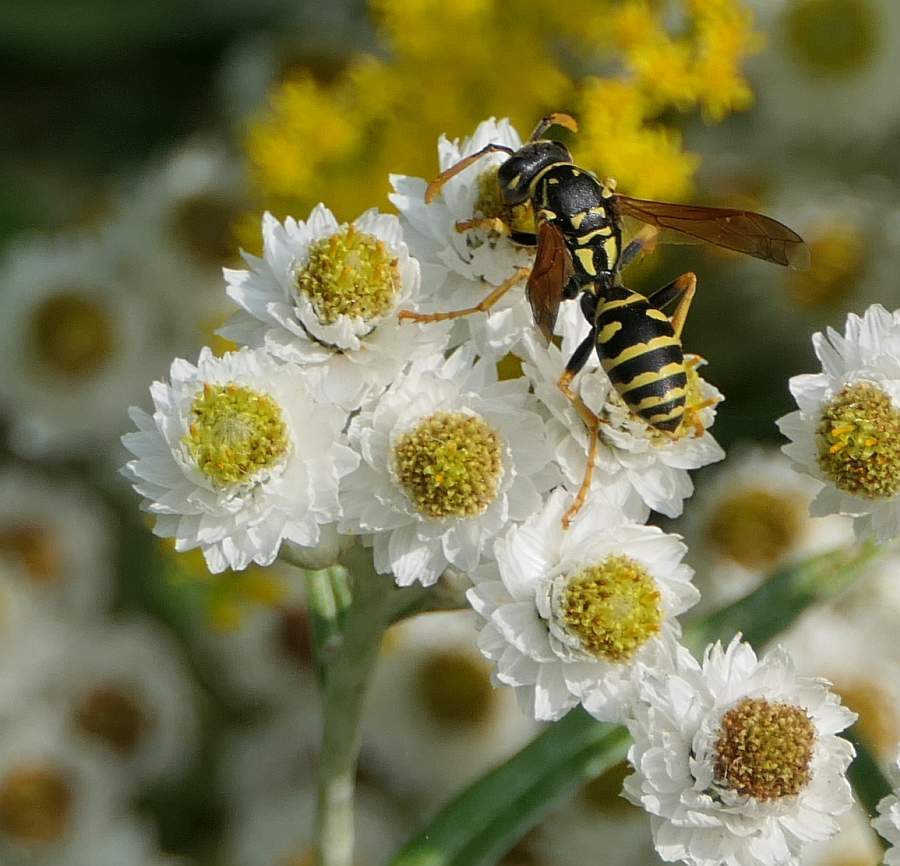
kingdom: Animalia
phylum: Arthropoda
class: Insecta
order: Hymenoptera
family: Eumenidae
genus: Polistes
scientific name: Polistes dominula
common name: Paper wasp
